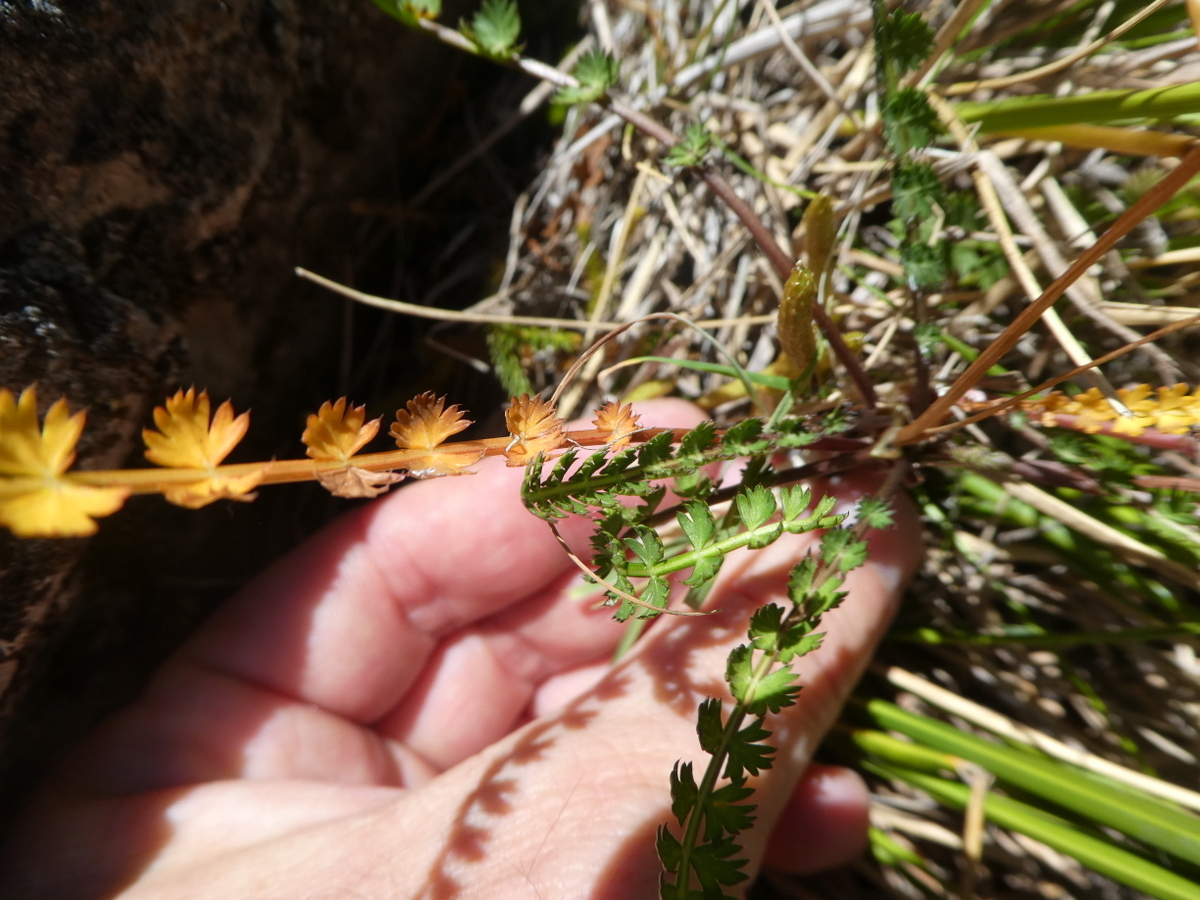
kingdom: Plantae
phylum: Tracheophyta
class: Magnoliopsida
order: Apiales
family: Apiaceae
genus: Anisotome
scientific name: Anisotome aromatica
